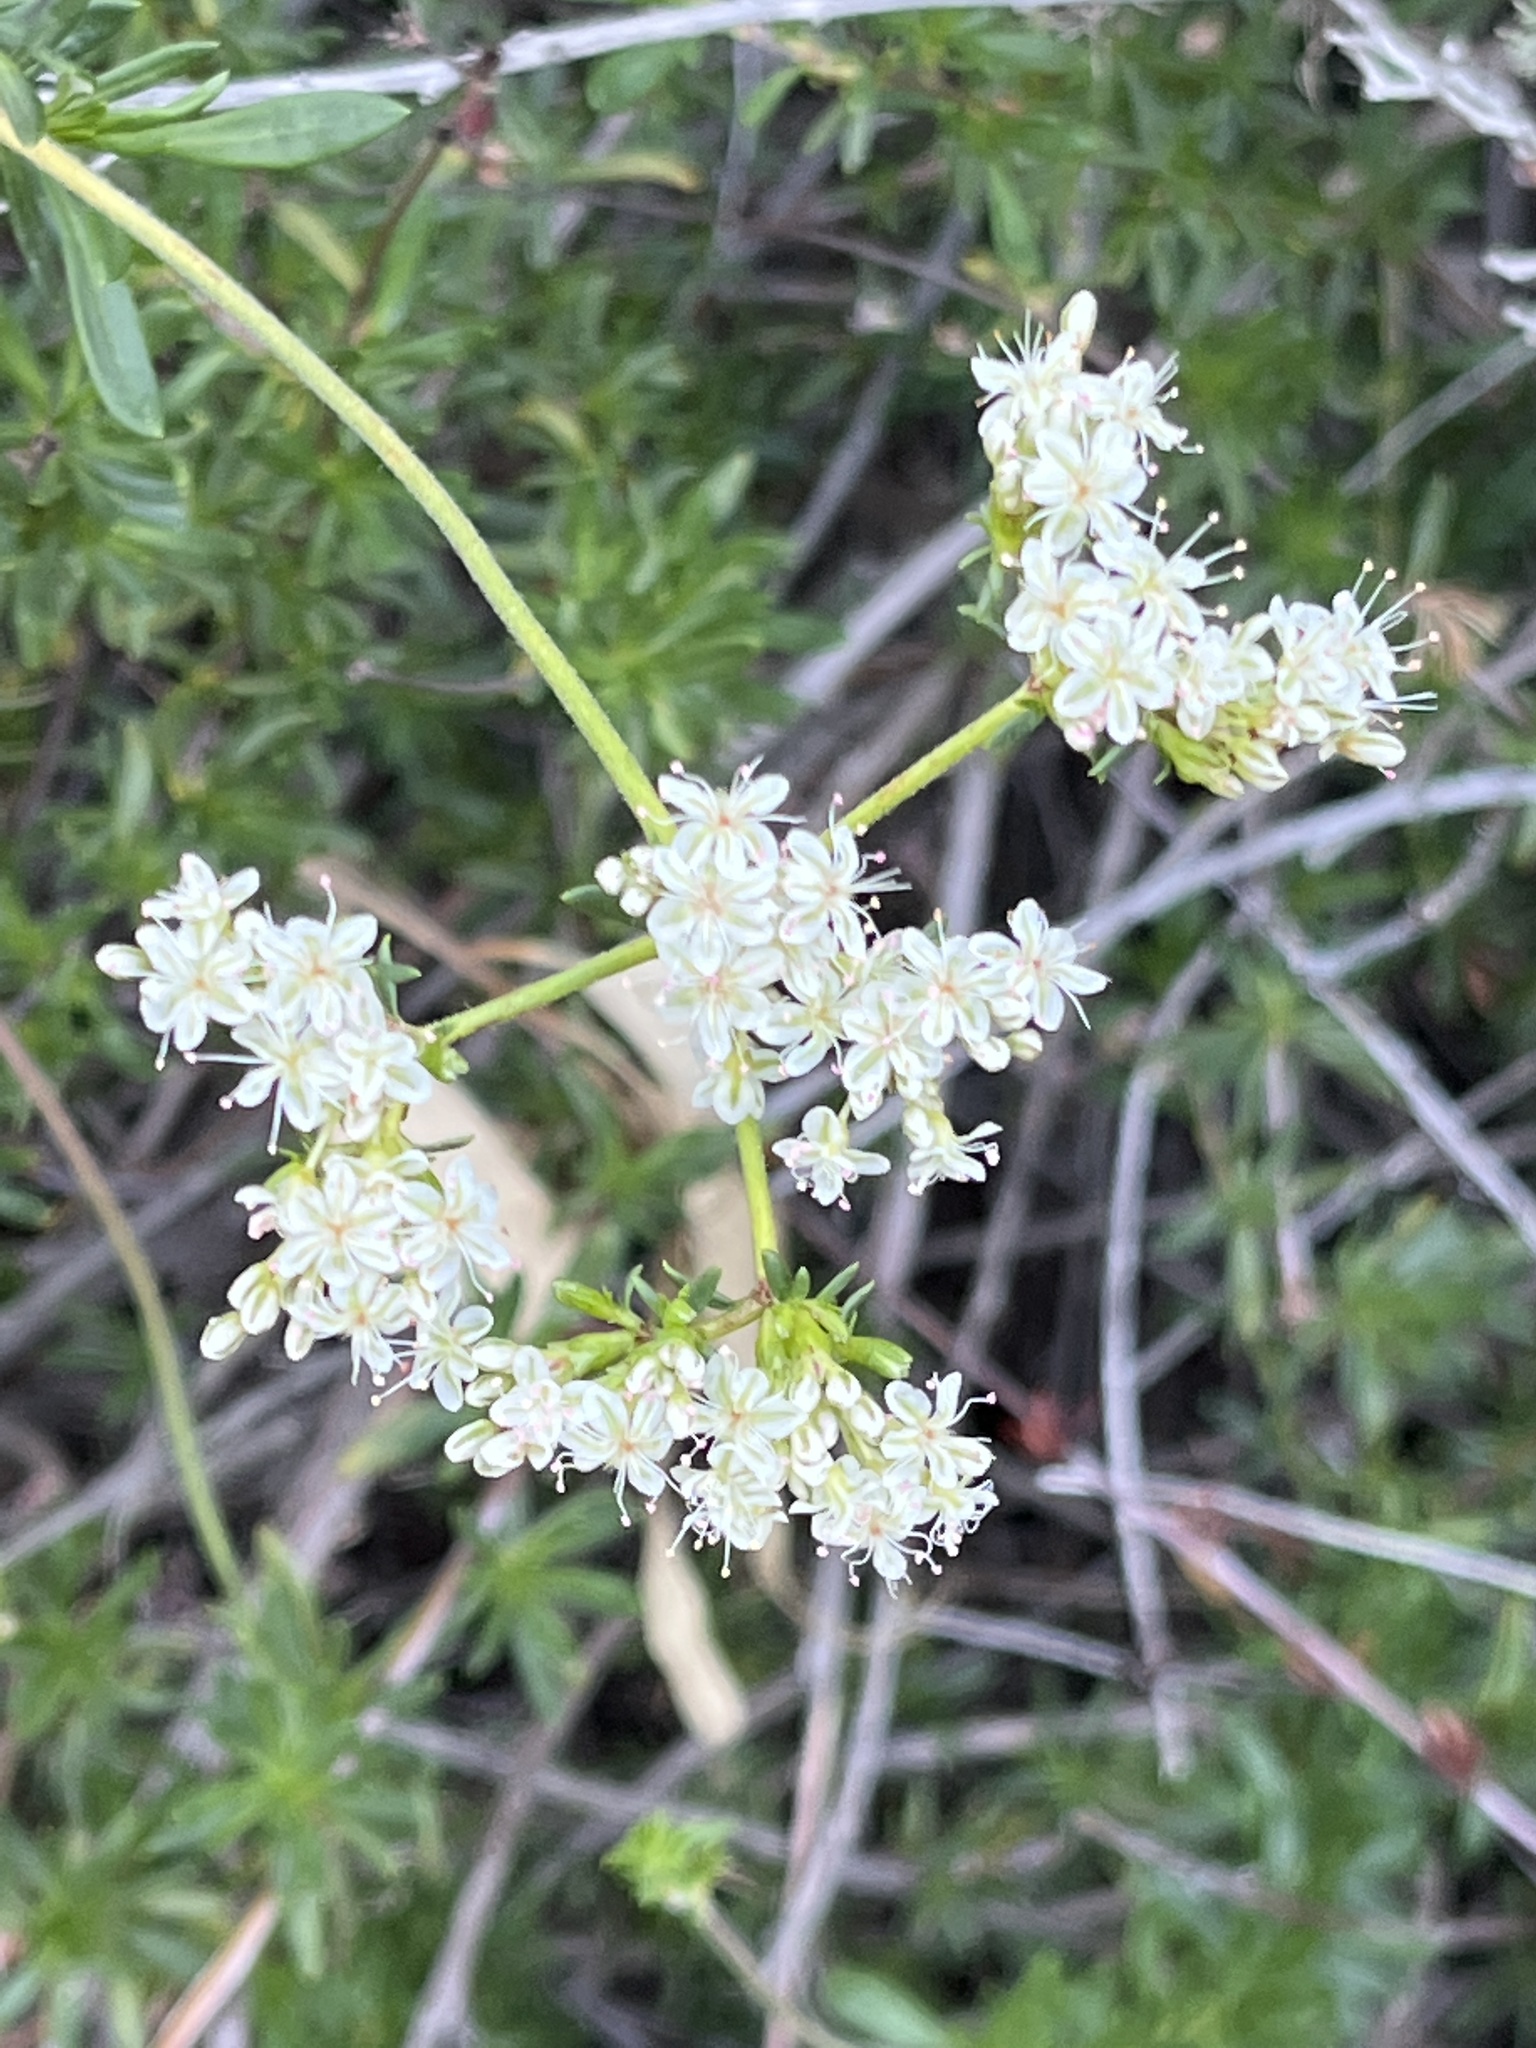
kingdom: Plantae
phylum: Tracheophyta
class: Magnoliopsida
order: Caryophyllales
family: Polygonaceae
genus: Eriogonum
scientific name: Eriogonum fasciculatum
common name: California wild buckwheat
